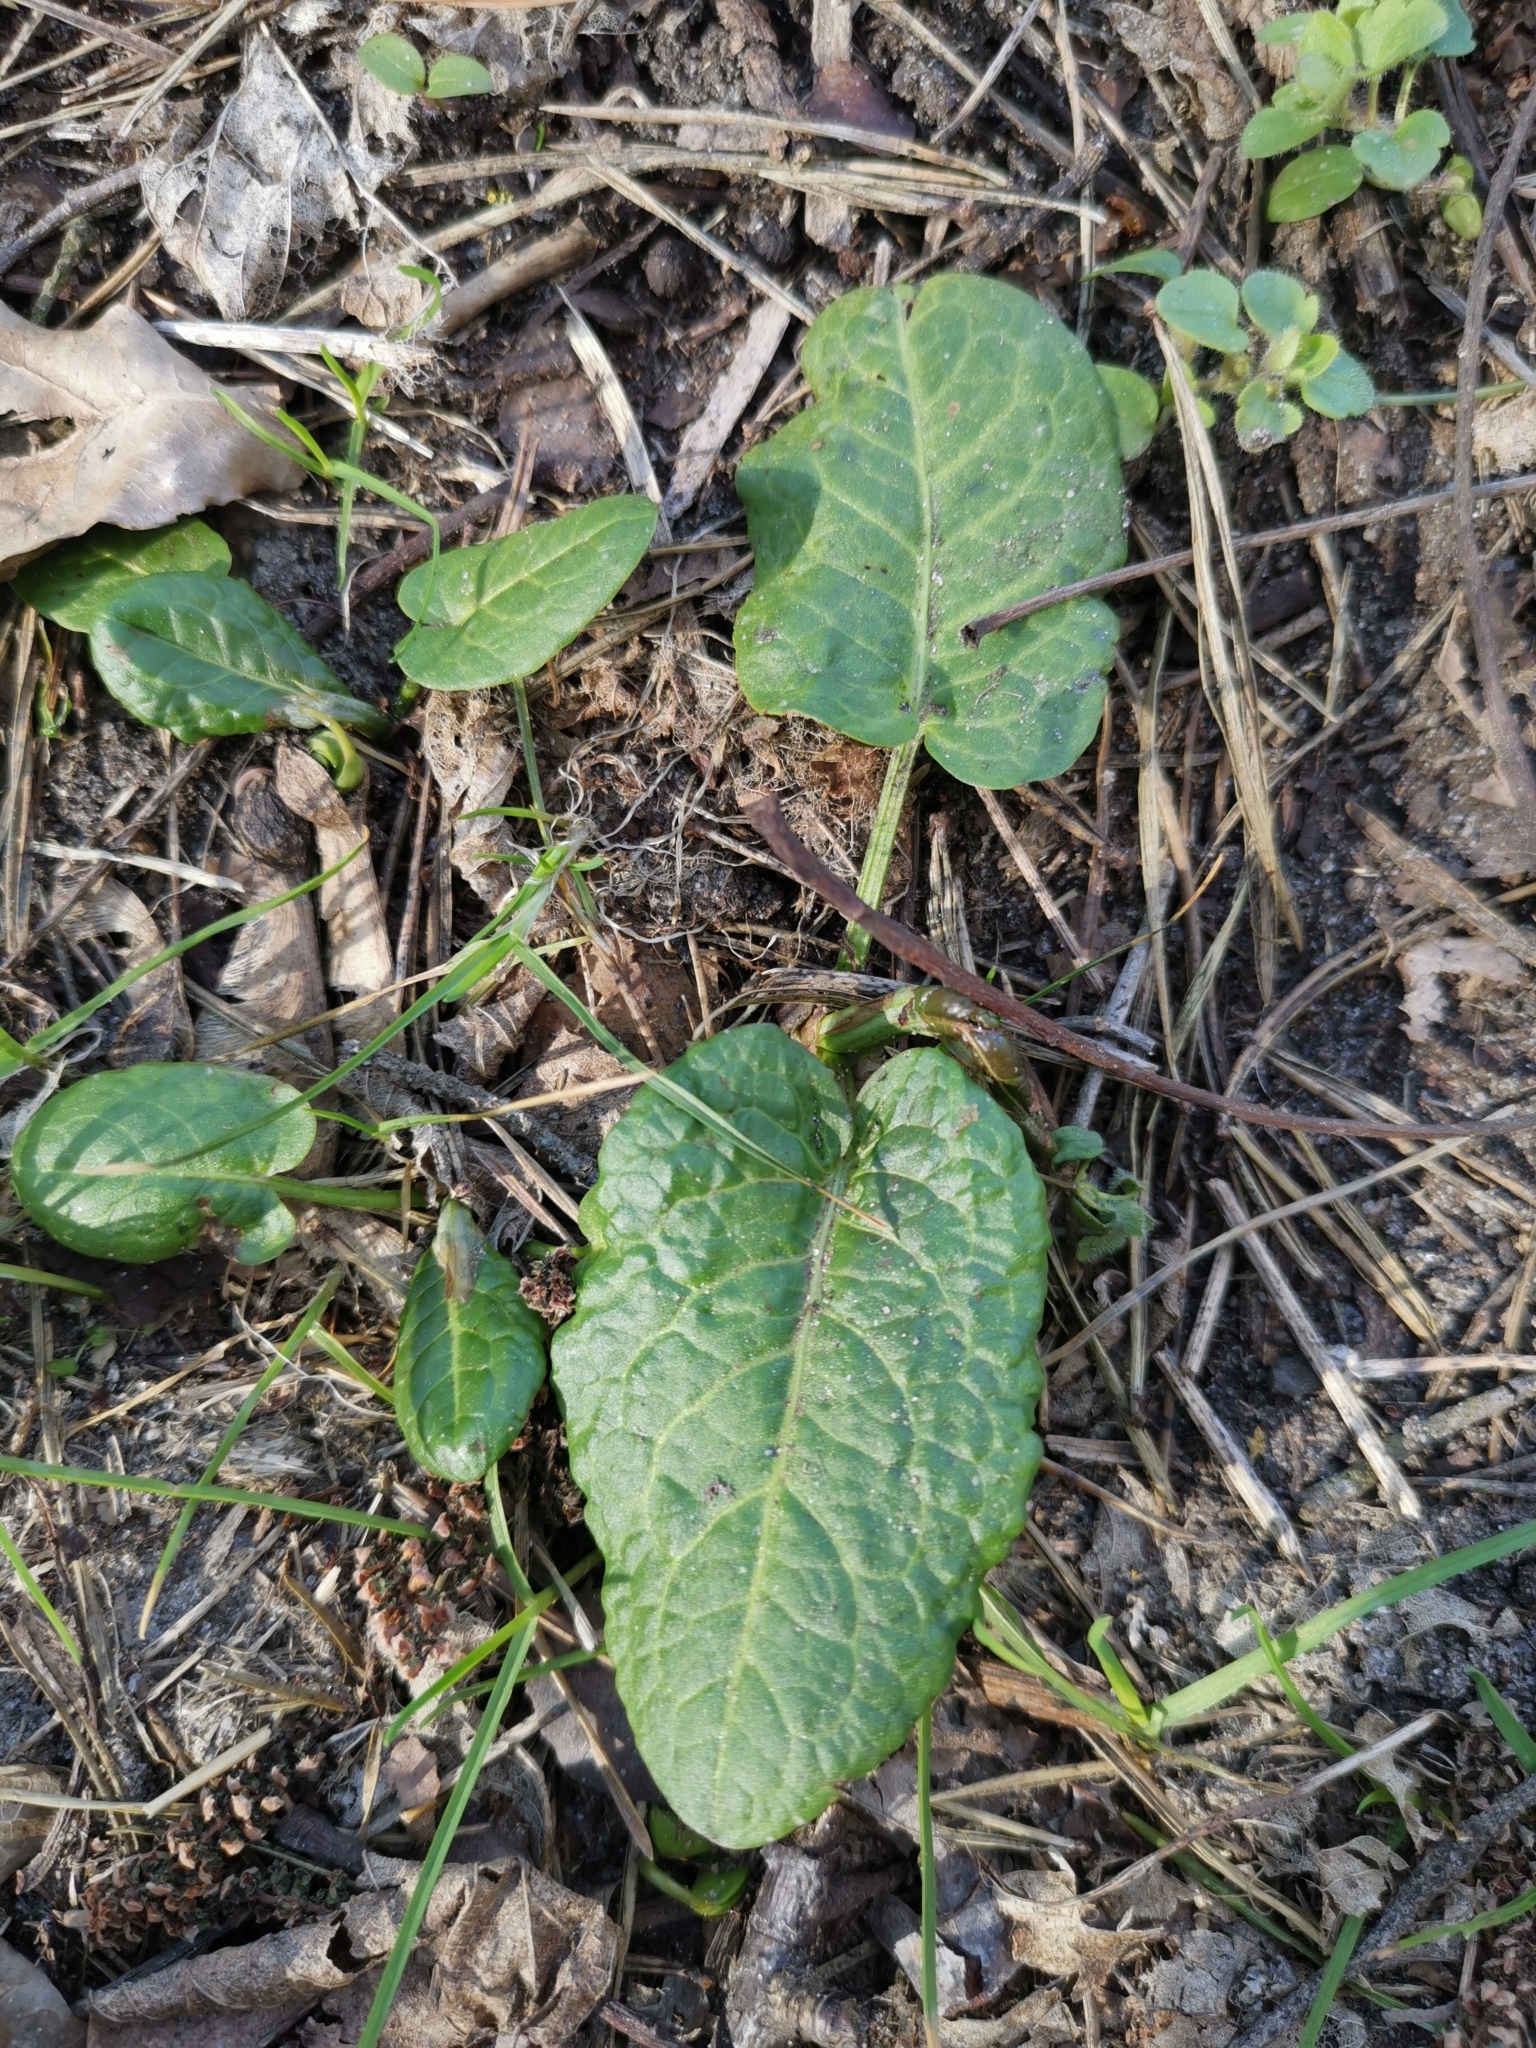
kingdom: Plantae
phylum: Tracheophyta
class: Magnoliopsida
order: Caryophyllales
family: Polygonaceae
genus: Rumex
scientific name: Rumex obtusifolius
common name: Bitter dock
